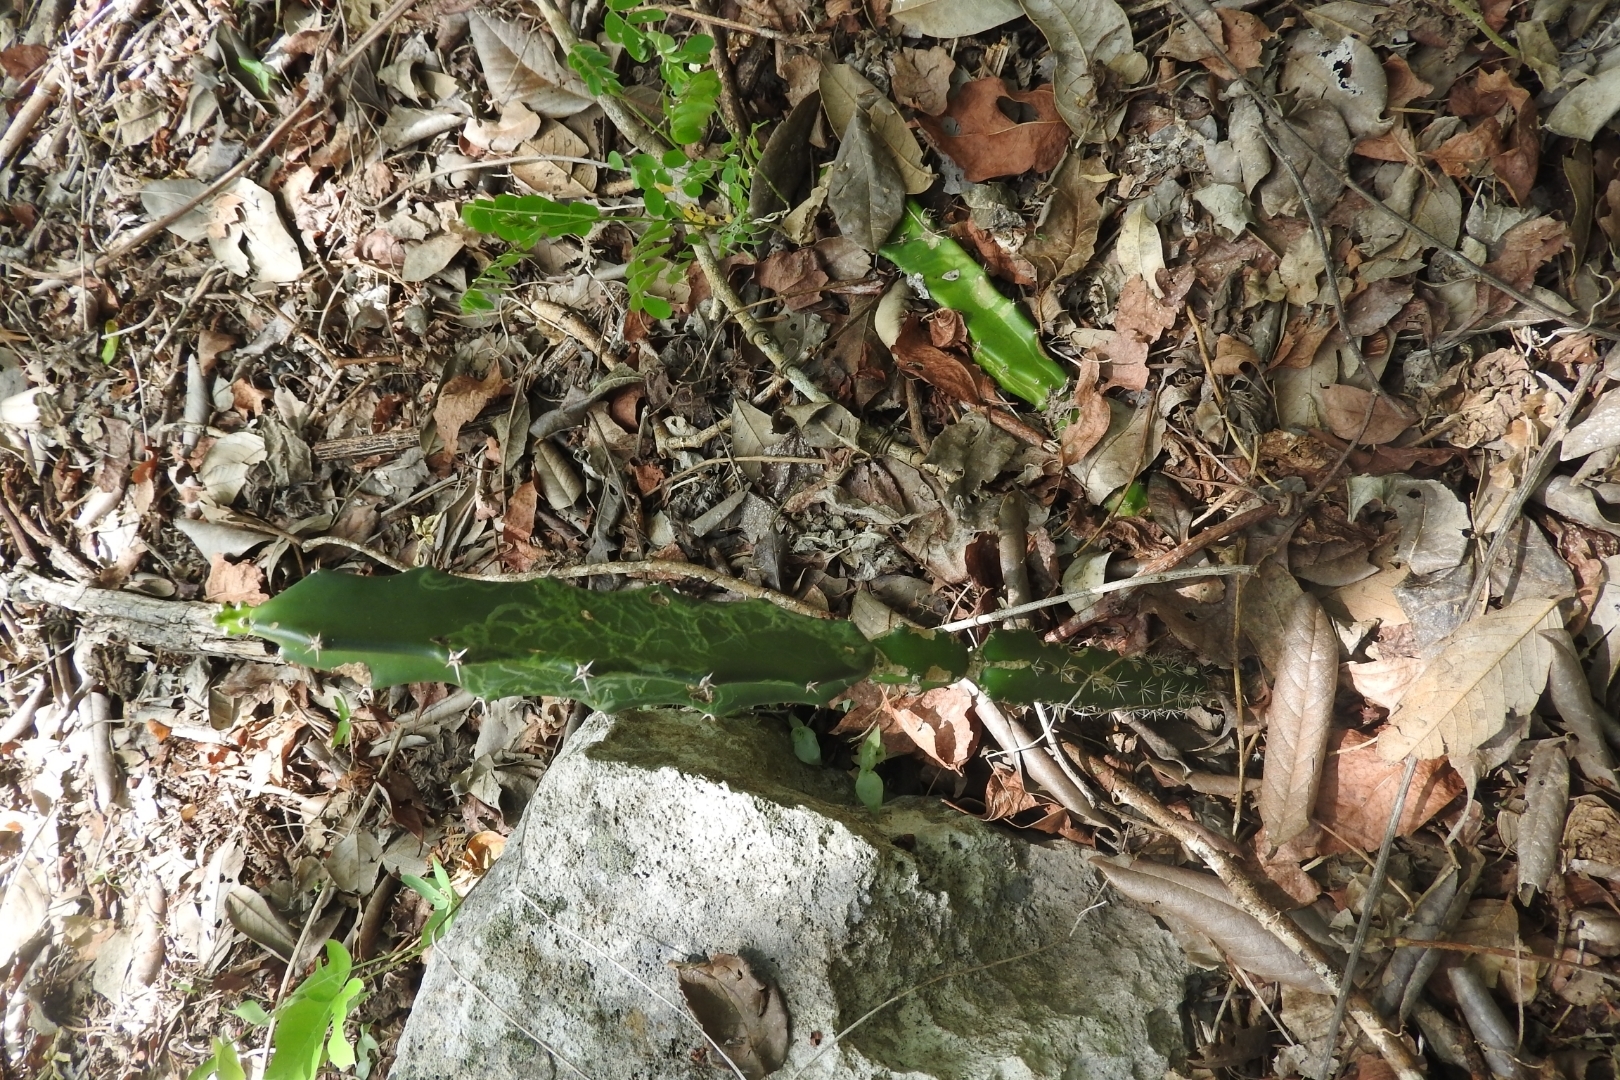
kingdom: Plantae
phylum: Tracheophyta
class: Magnoliopsida
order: Caryophyllales
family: Cactaceae
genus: Acanthocereus
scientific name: Acanthocereus tetragonus
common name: Triangle cactus
